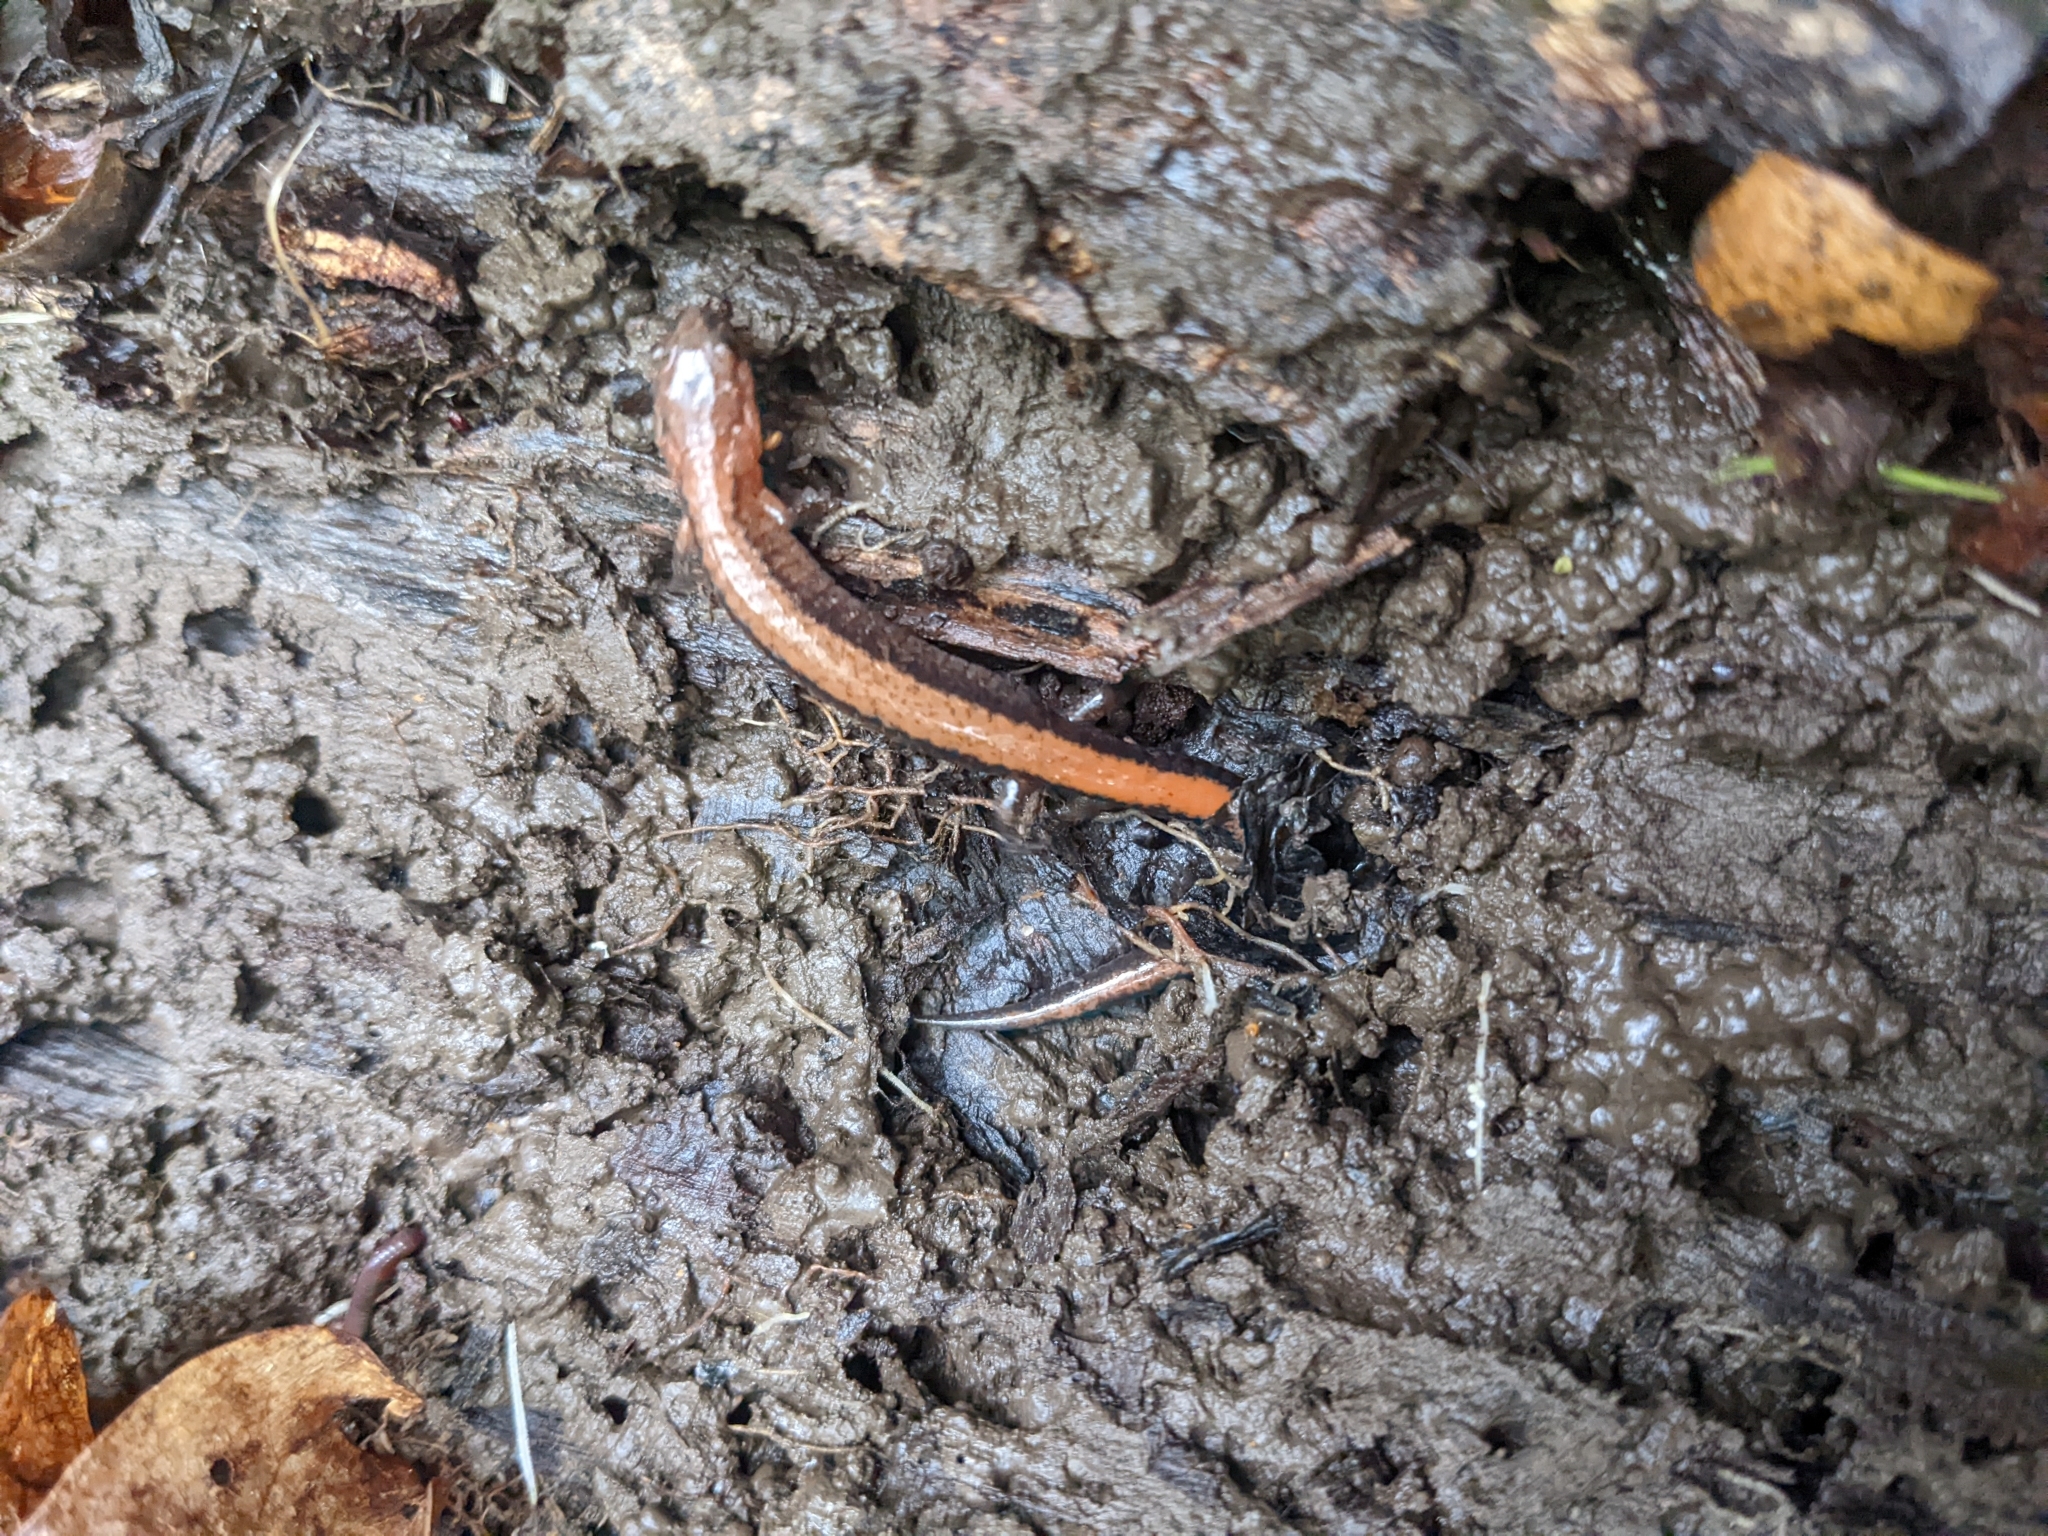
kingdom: Animalia
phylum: Chordata
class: Amphibia
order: Caudata
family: Plethodontidae
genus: Plethodon
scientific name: Plethodon cinereus
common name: Redback salamander
